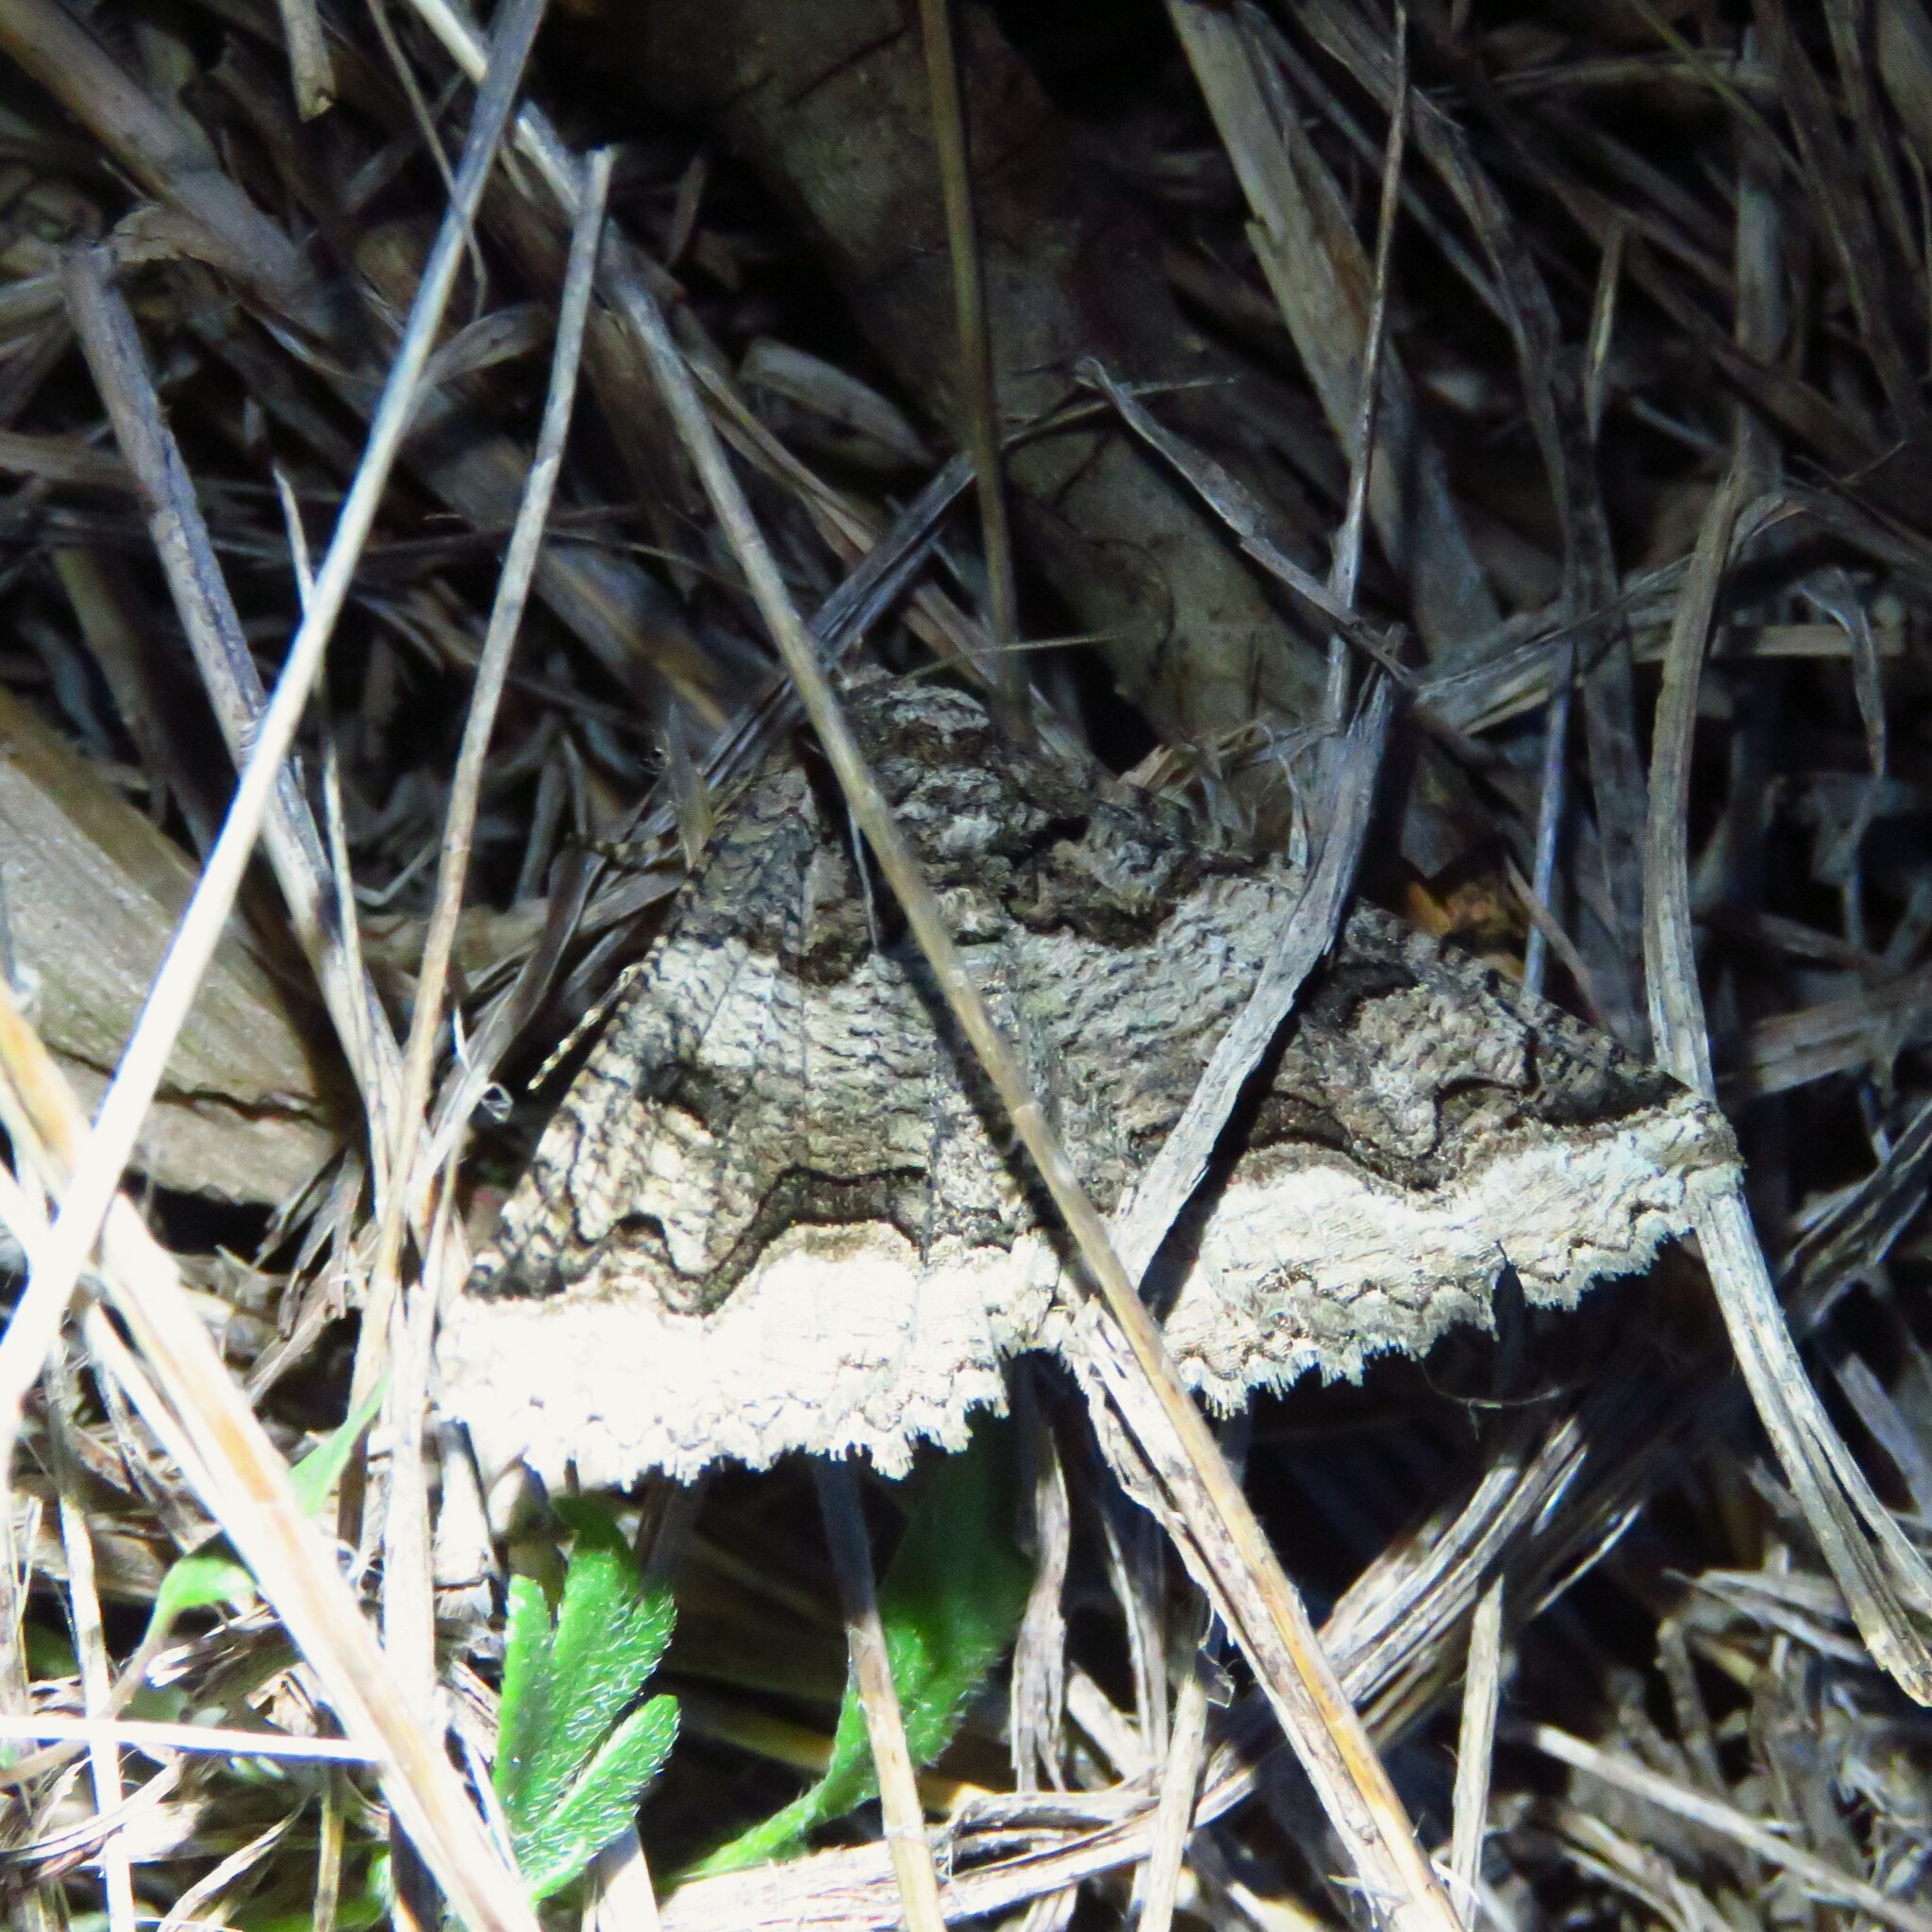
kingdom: Animalia
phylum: Arthropoda
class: Insecta
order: Lepidoptera
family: Erebidae
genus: Zale
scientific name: Zale calycanthata
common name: Double-banded zale
